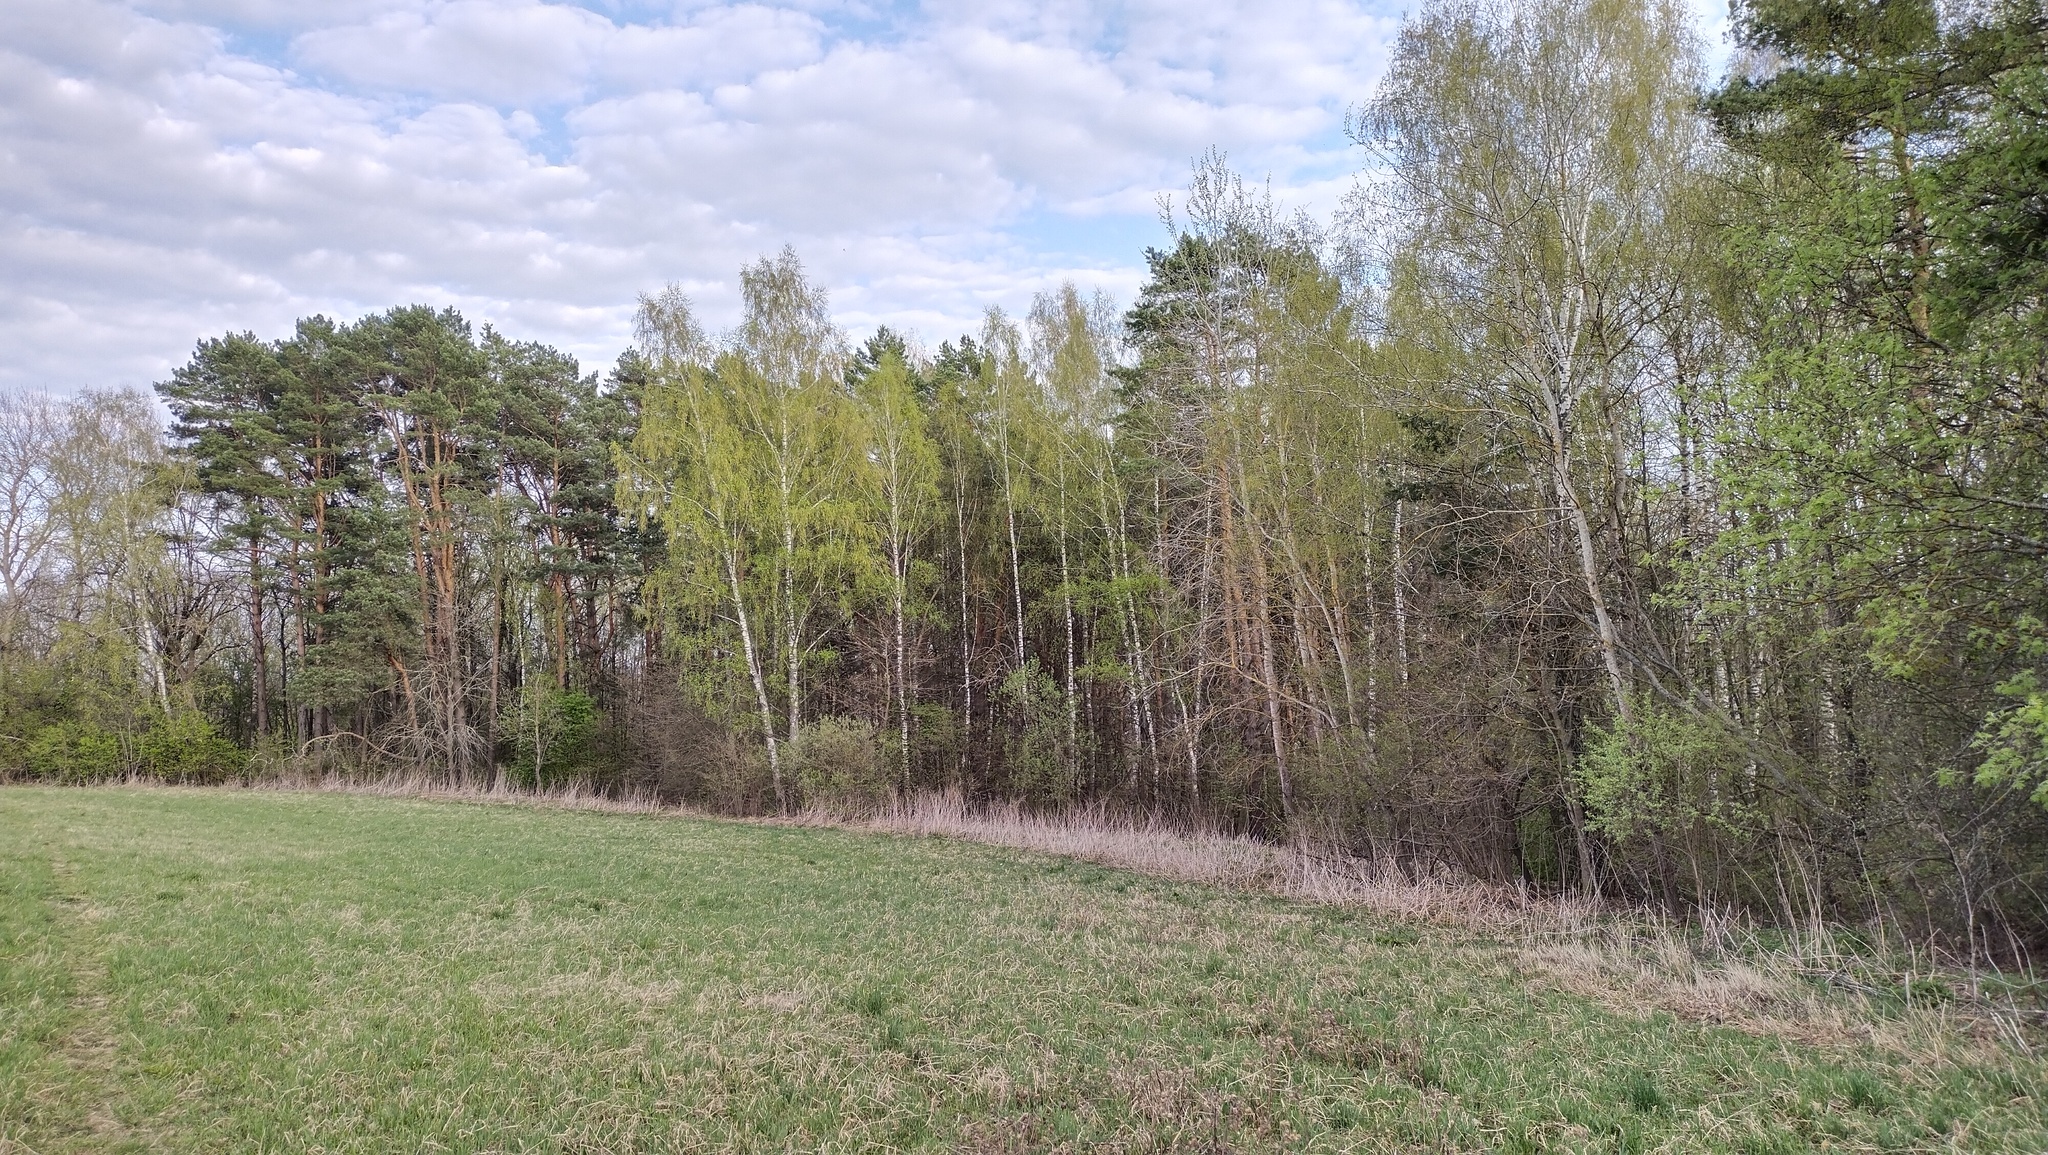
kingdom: Plantae
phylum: Tracheophyta
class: Pinopsida
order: Pinales
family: Pinaceae
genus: Pinus
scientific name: Pinus sylvestris
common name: Scots pine
